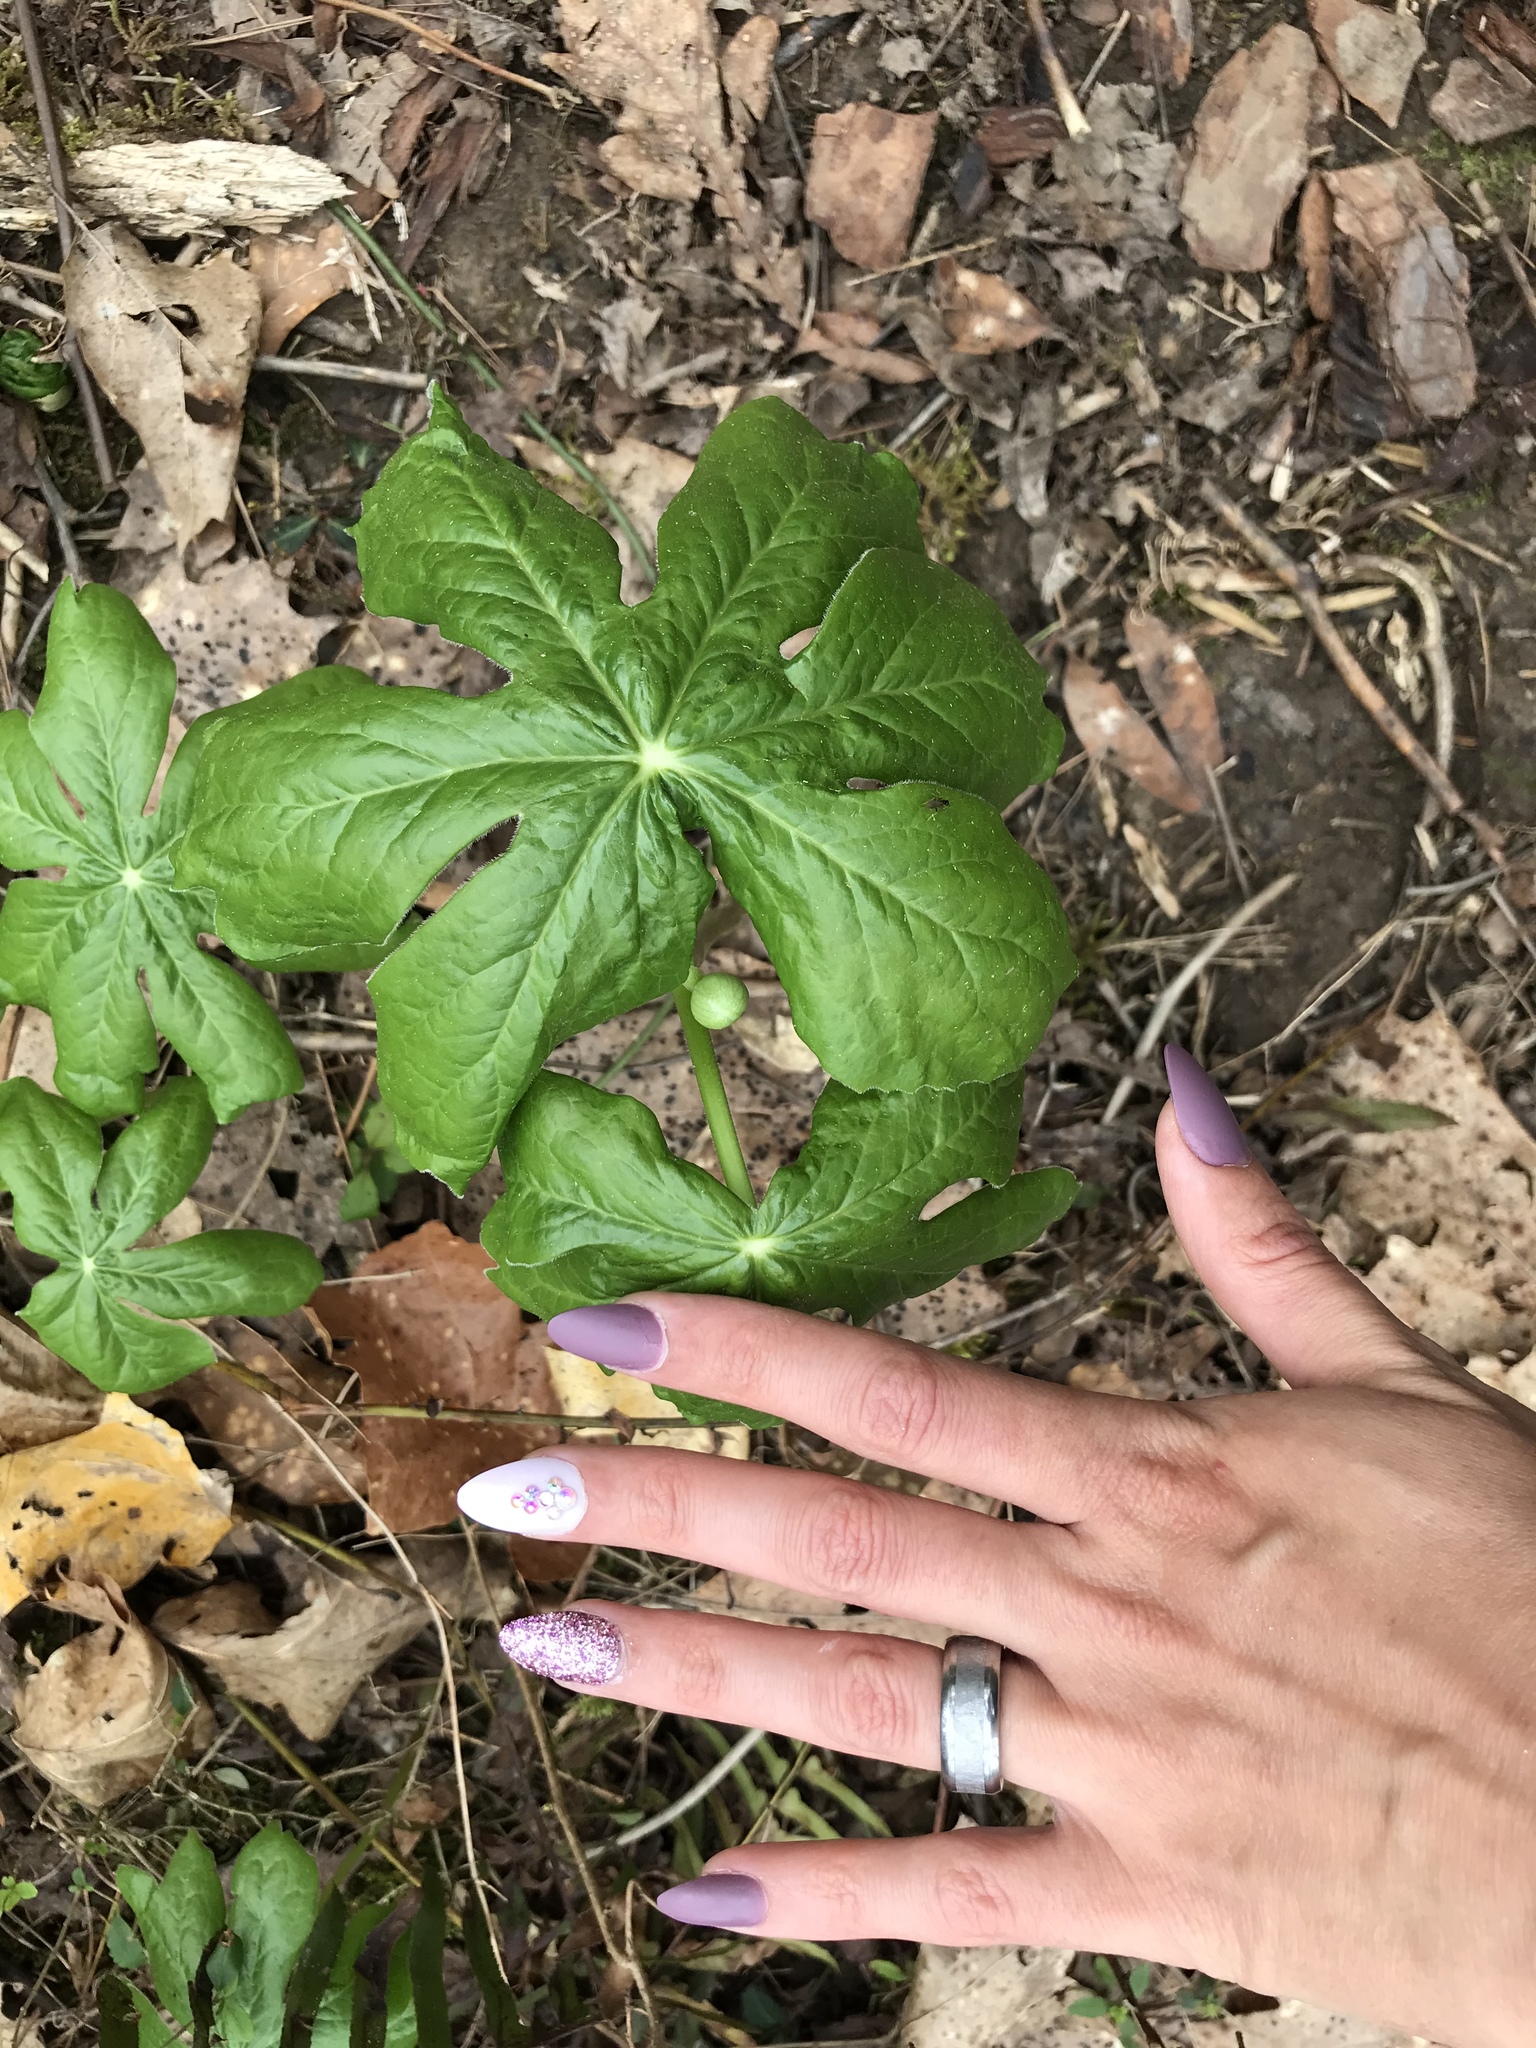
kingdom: Plantae
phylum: Tracheophyta
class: Magnoliopsida
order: Ranunculales
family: Berberidaceae
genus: Podophyllum
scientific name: Podophyllum peltatum
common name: Wild mandrake
